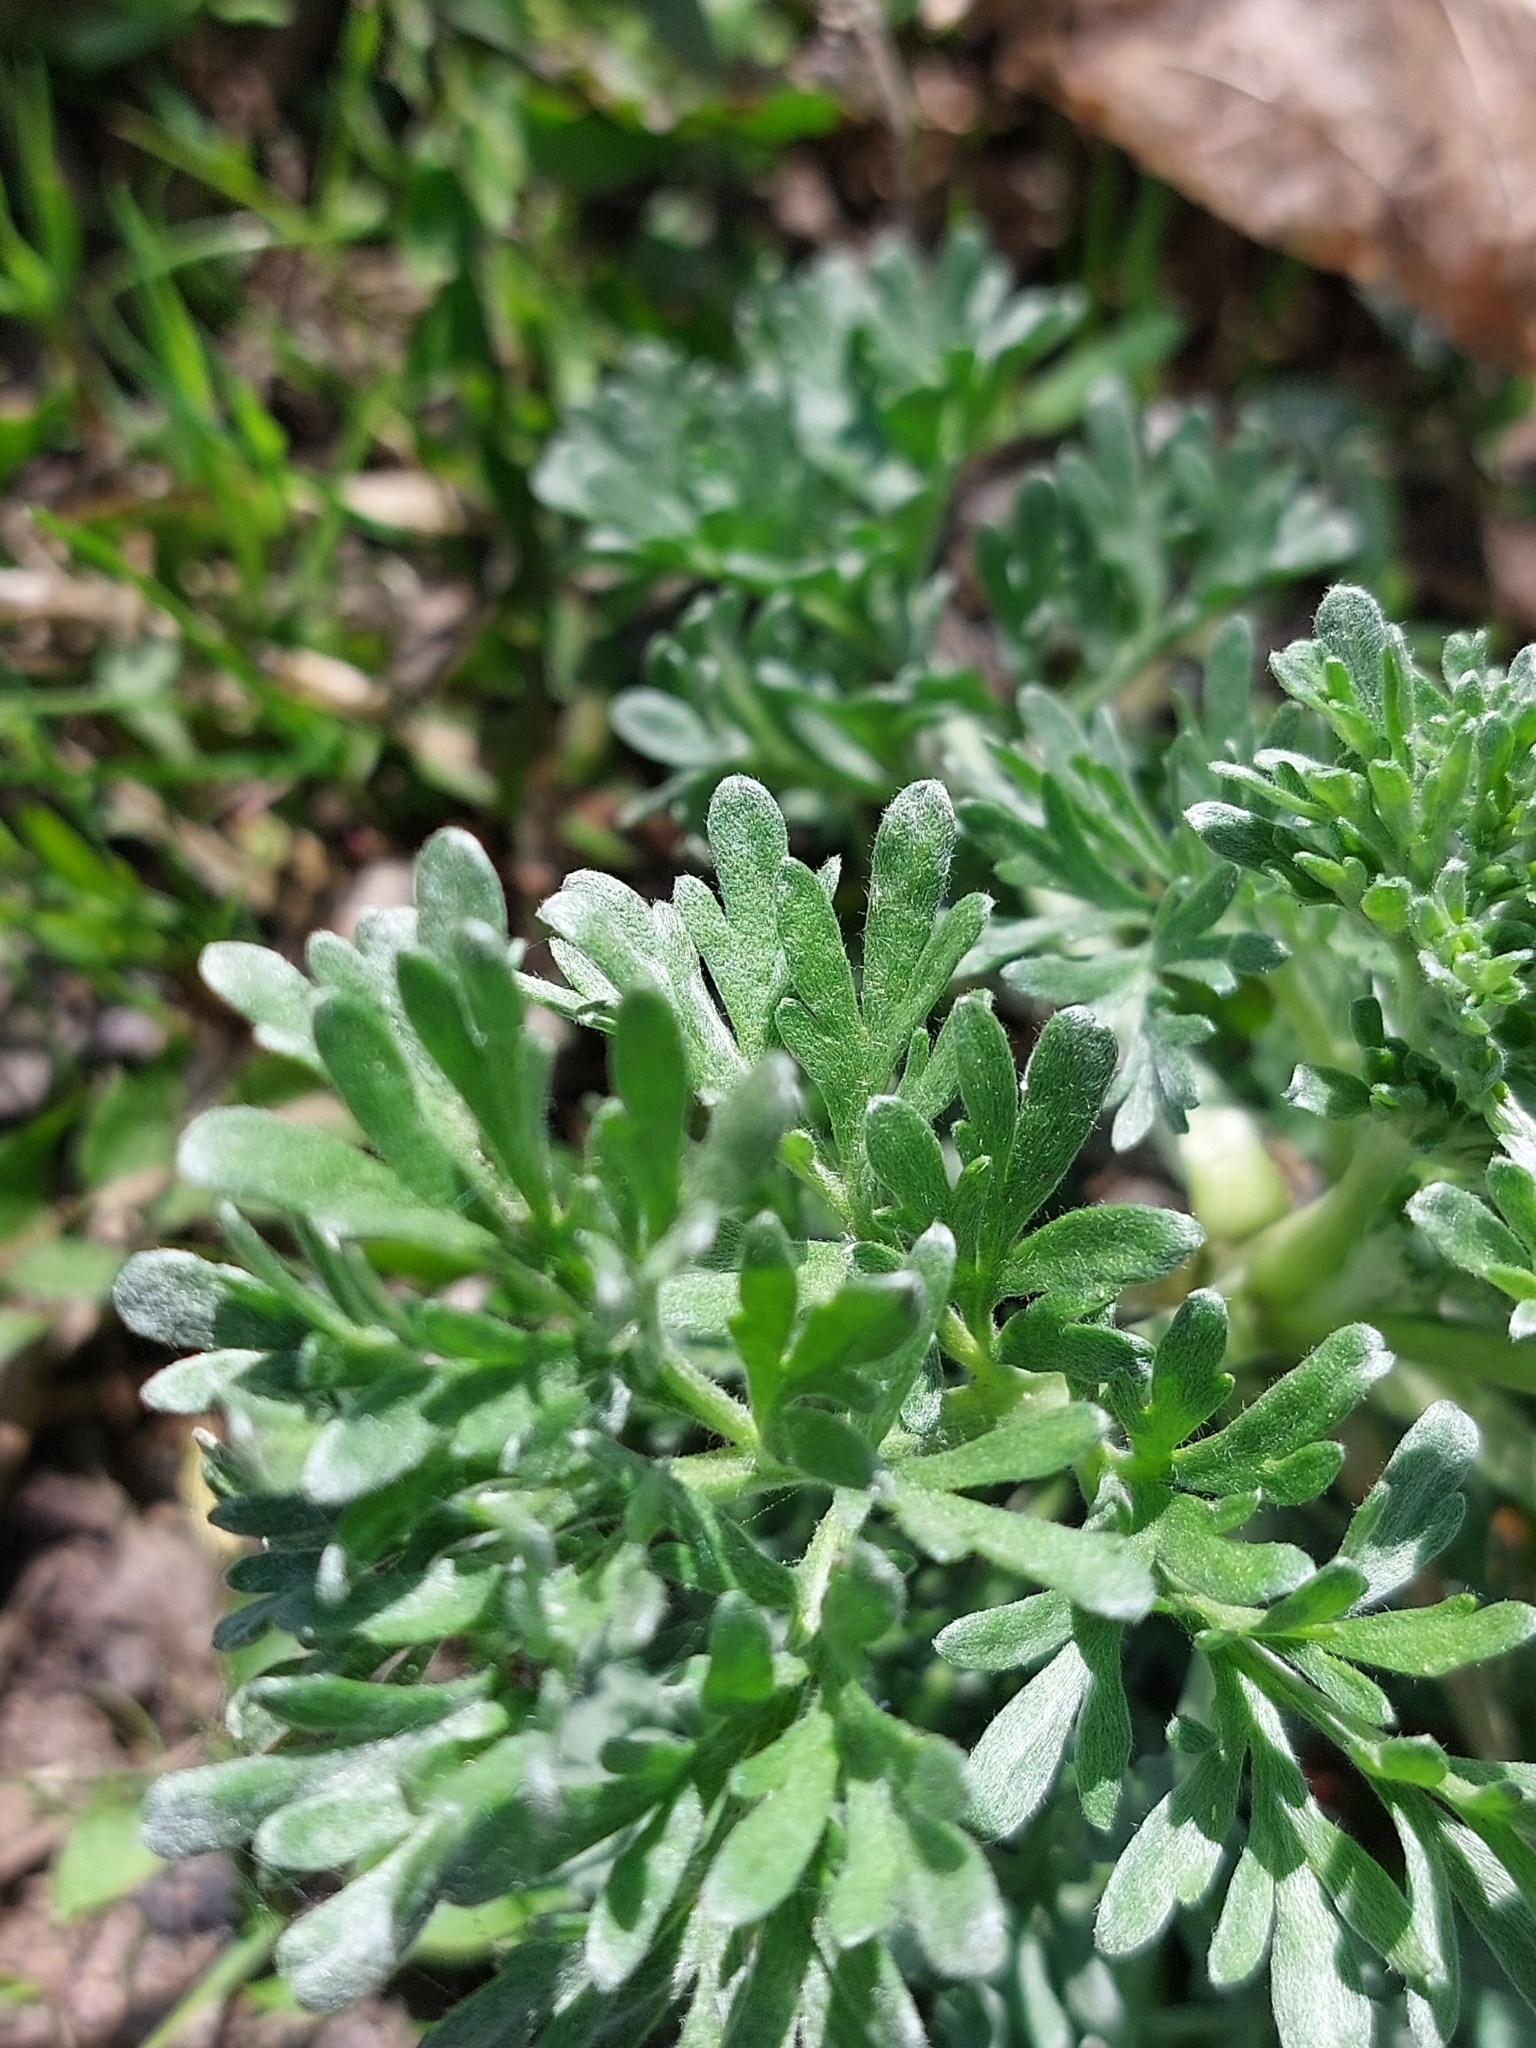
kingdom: Plantae
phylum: Tracheophyta
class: Magnoliopsida
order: Asterales
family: Asteraceae
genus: Artemisia
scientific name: Artemisia absinthium
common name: Wormwood
